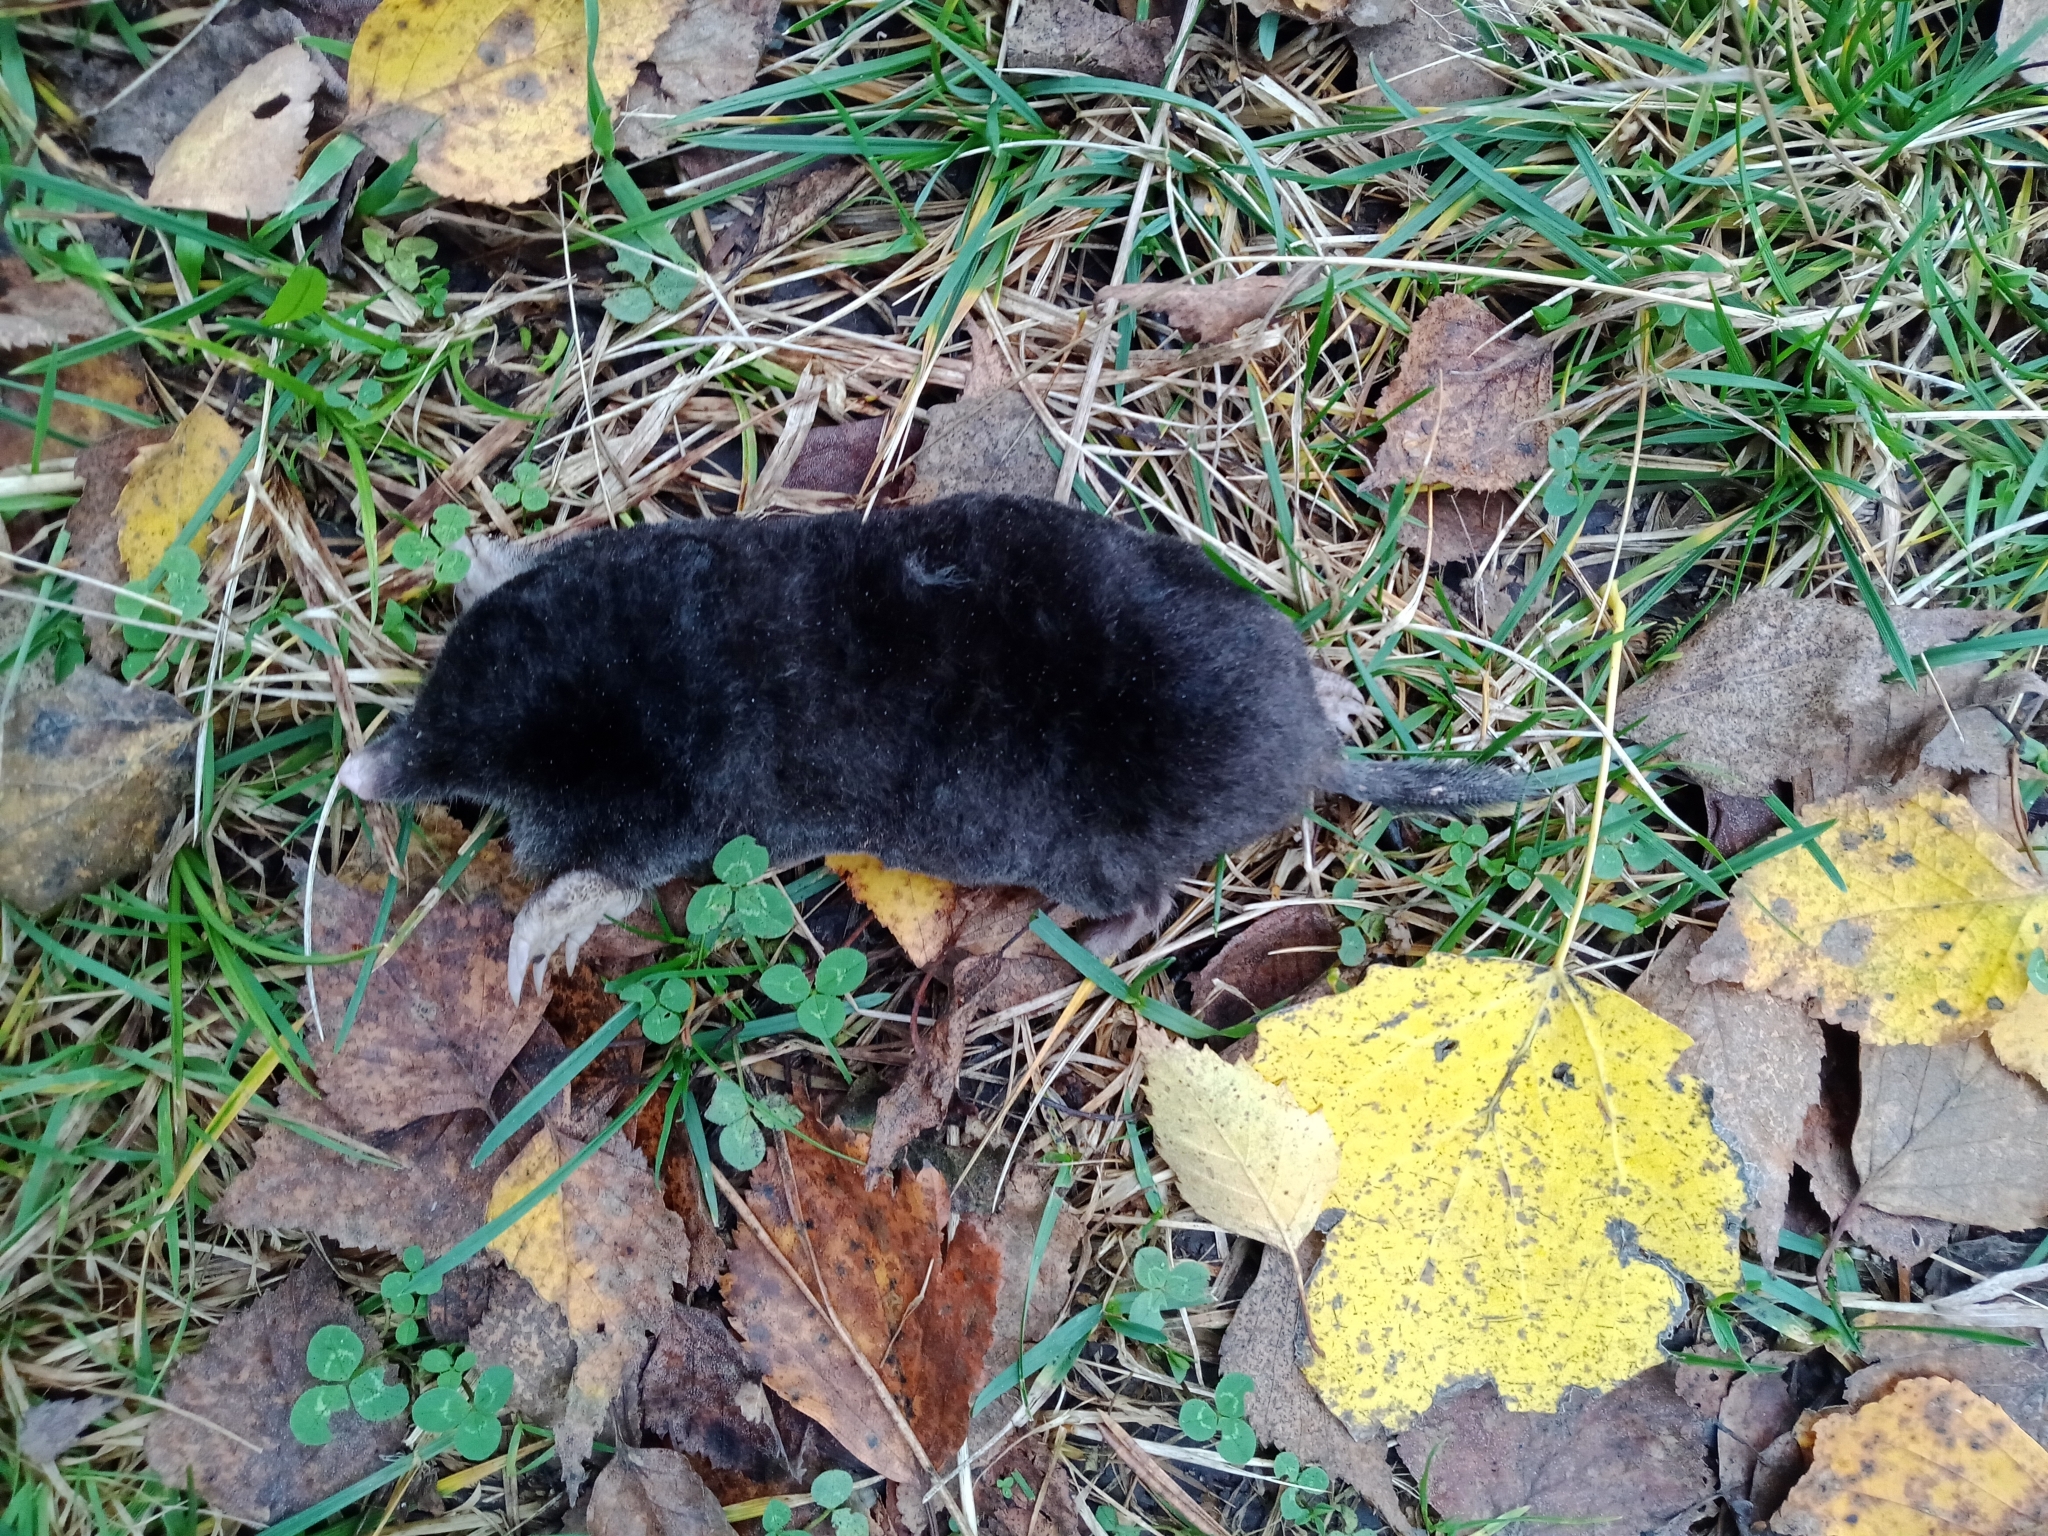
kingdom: Animalia
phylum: Chordata
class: Mammalia
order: Soricomorpha
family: Talpidae
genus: Talpa
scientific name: Talpa europaea
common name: European mole
